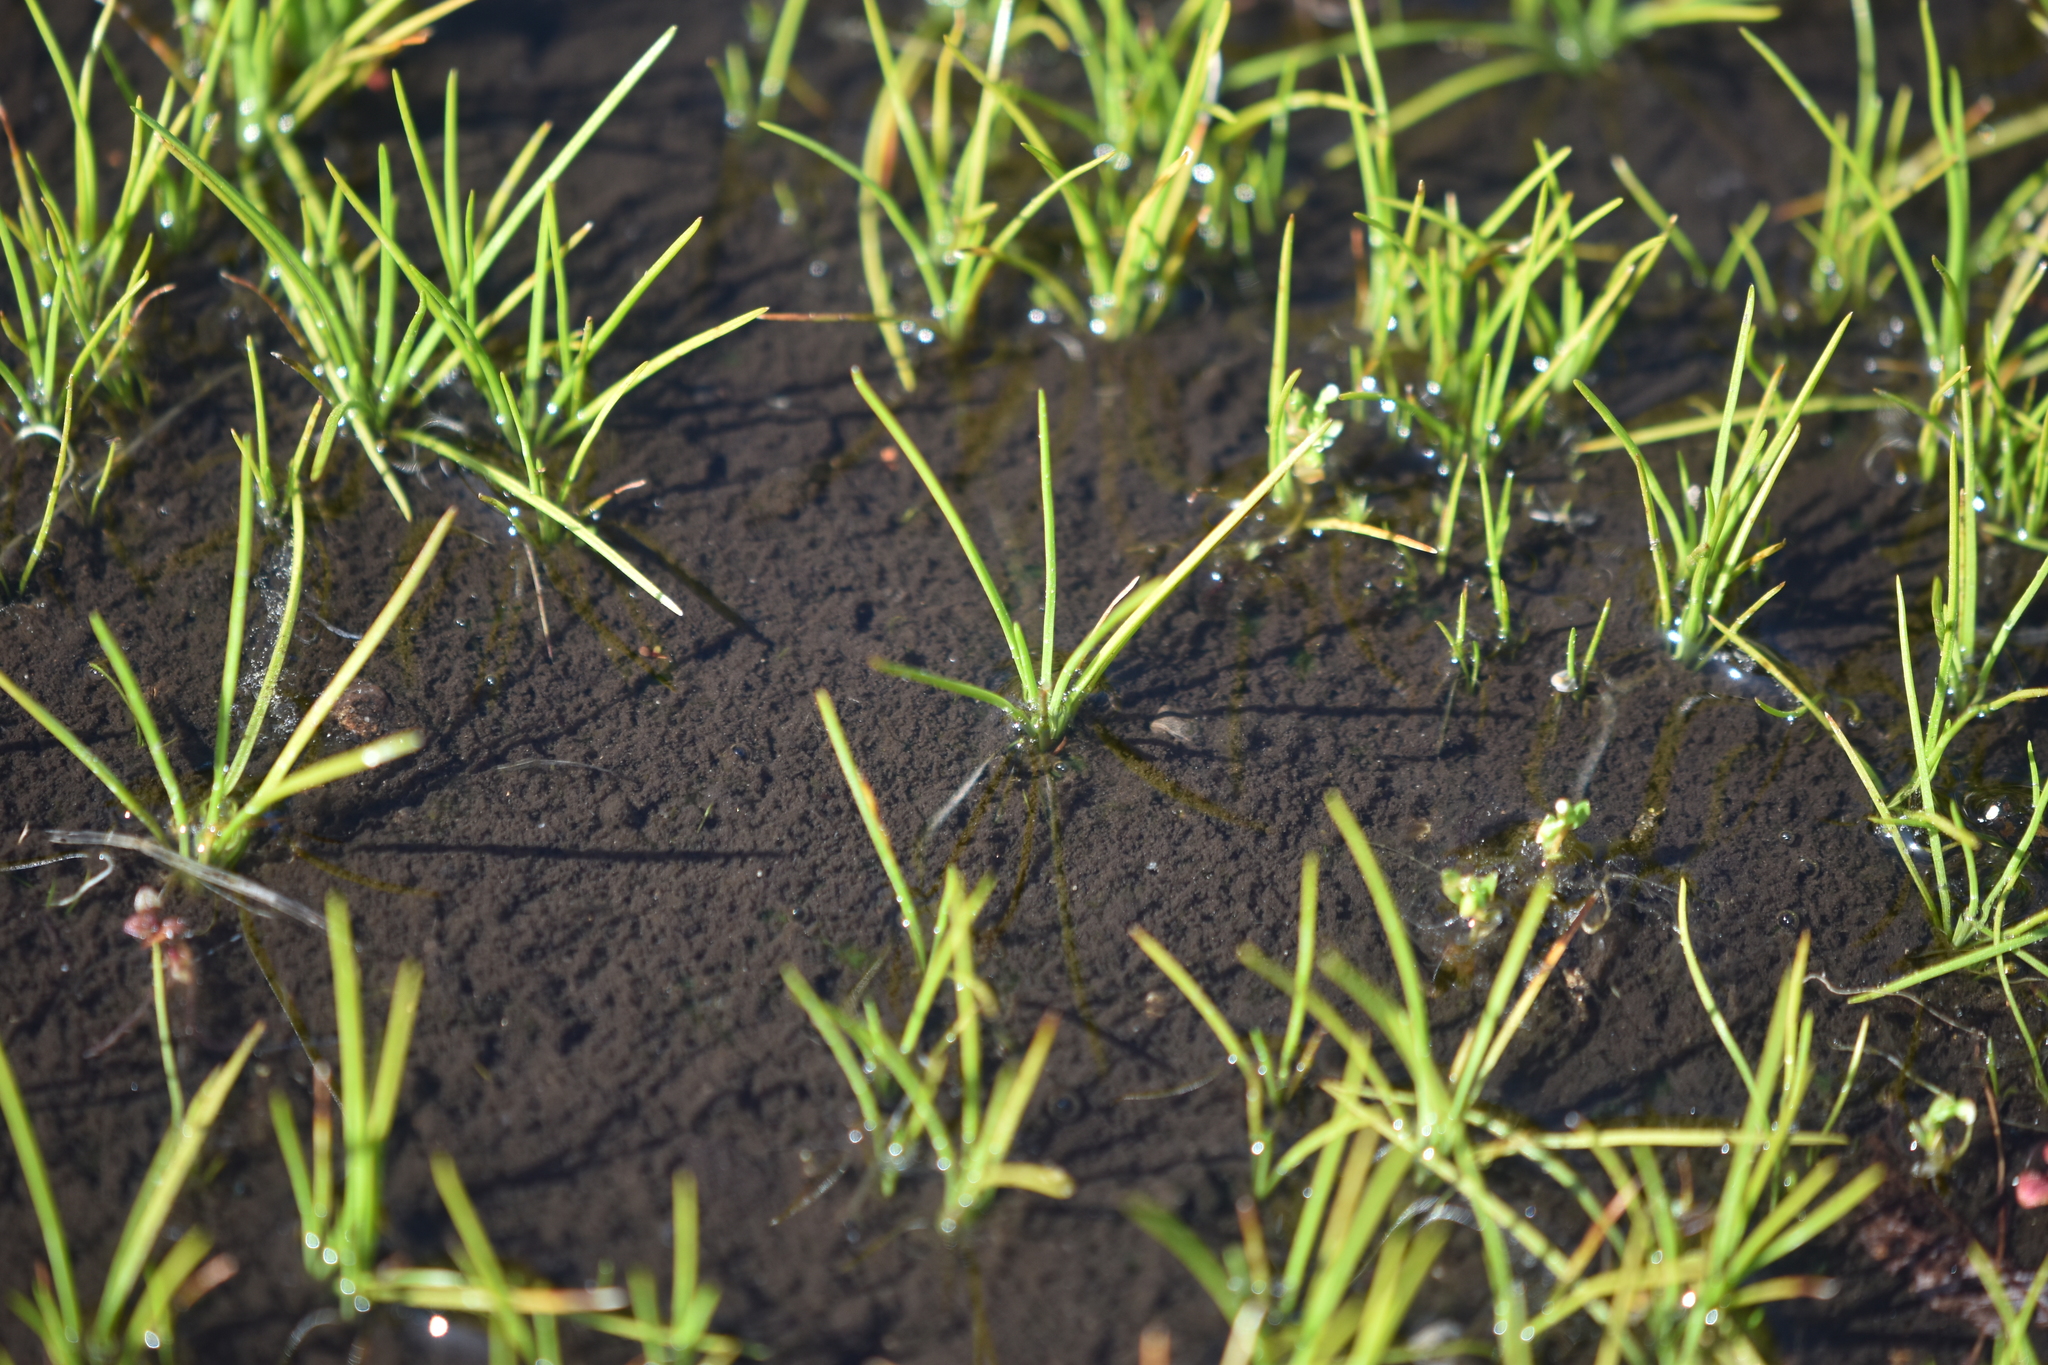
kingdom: Plantae
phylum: Tracheophyta
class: Lycopodiopsida
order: Isoetales
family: Isoetaceae
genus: Isoetes
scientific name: Isoetes nuttallii
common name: Nuttall's quillwort
